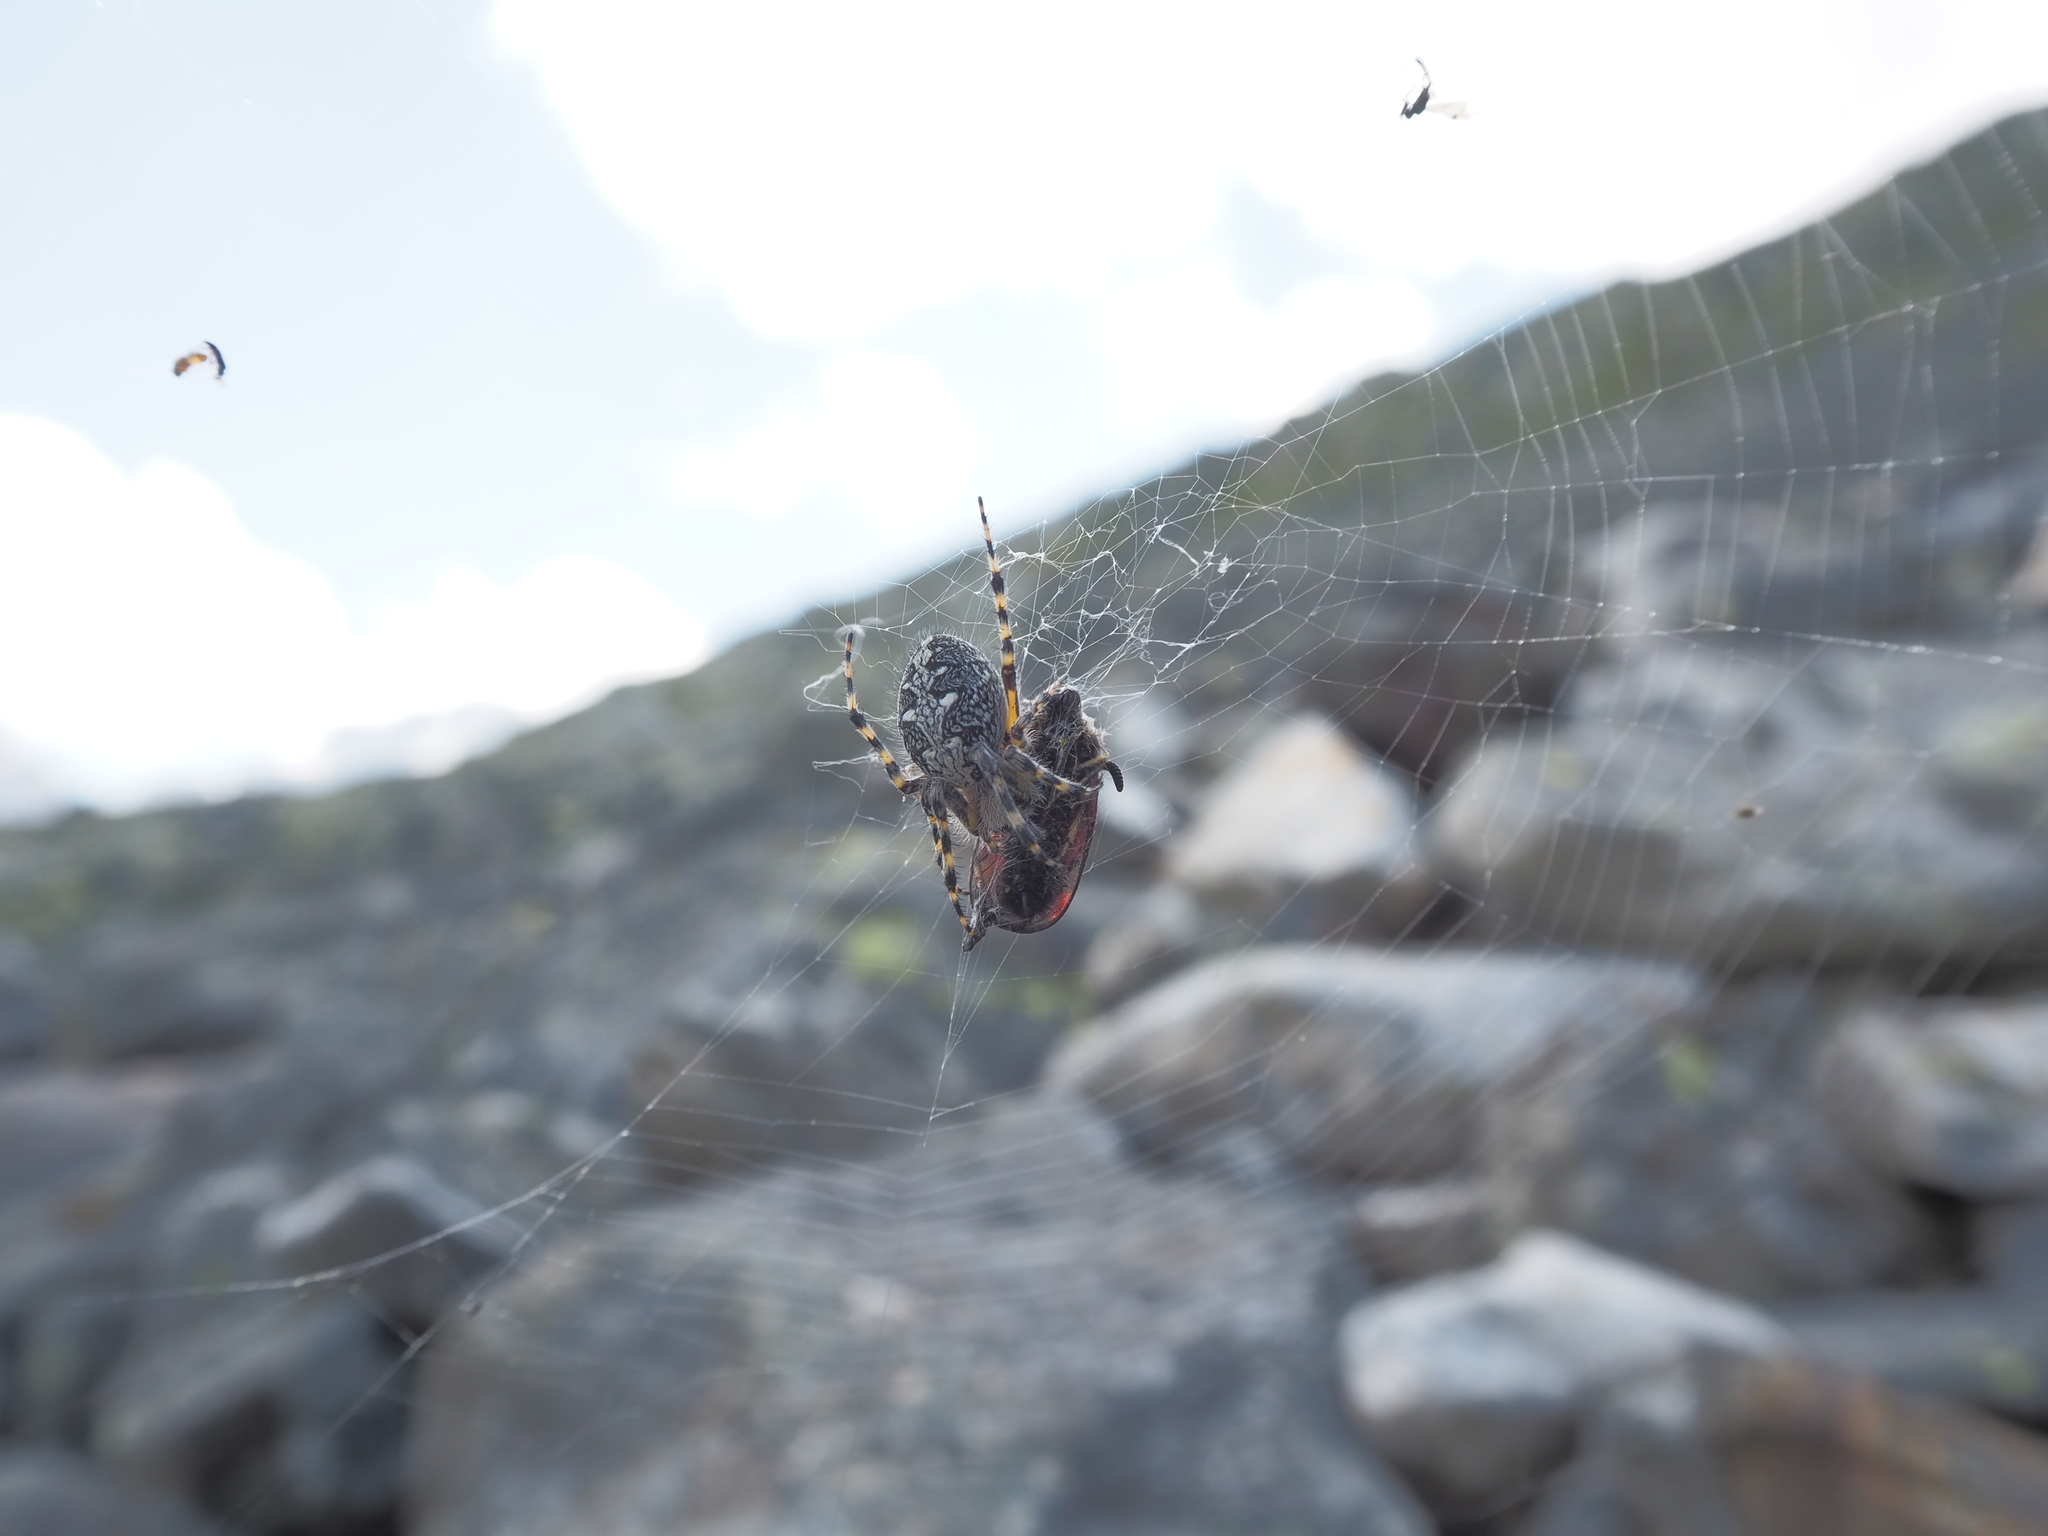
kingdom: Animalia
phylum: Arthropoda
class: Arachnida
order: Araneae
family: Araneidae
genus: Aculepeira
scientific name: Aculepeira carbonaria
